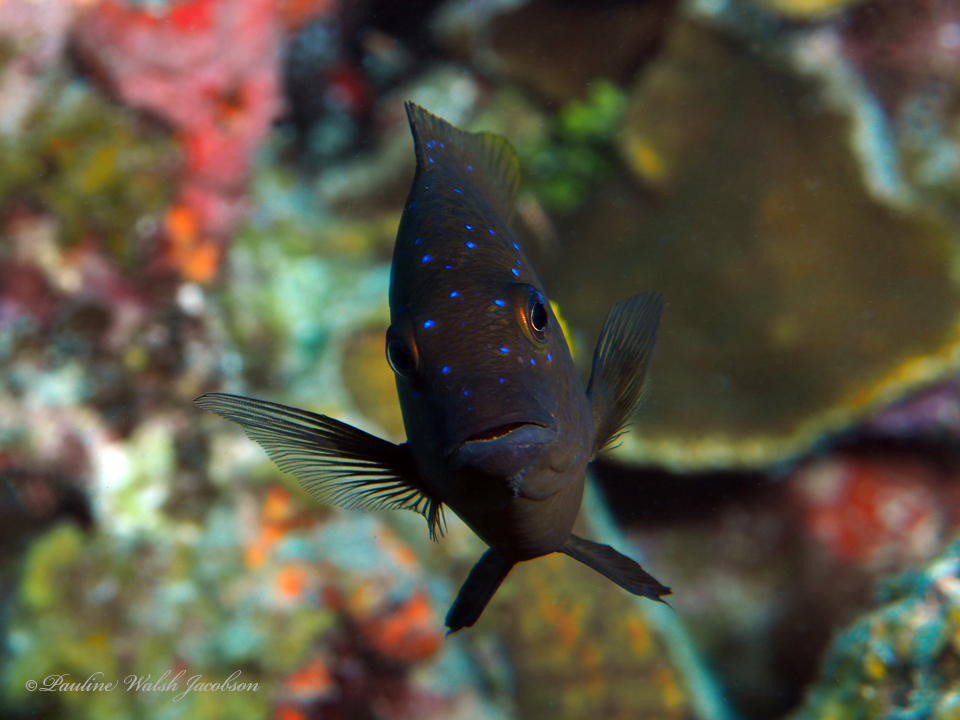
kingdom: Animalia
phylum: Chordata
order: Perciformes
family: Pomacentridae
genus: Microspathodon
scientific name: Microspathodon chrysurus
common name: Yellowtail damselfish
